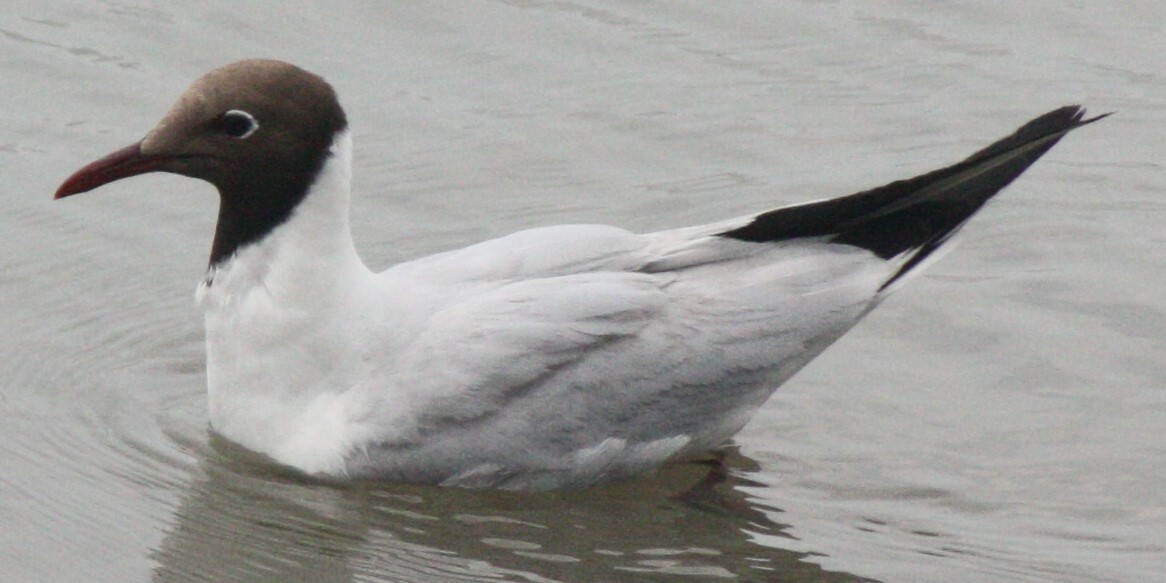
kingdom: Animalia
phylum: Chordata
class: Aves
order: Charadriiformes
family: Laridae
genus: Chroicocephalus
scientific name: Chroicocephalus ridibundus
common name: Black-headed gull
